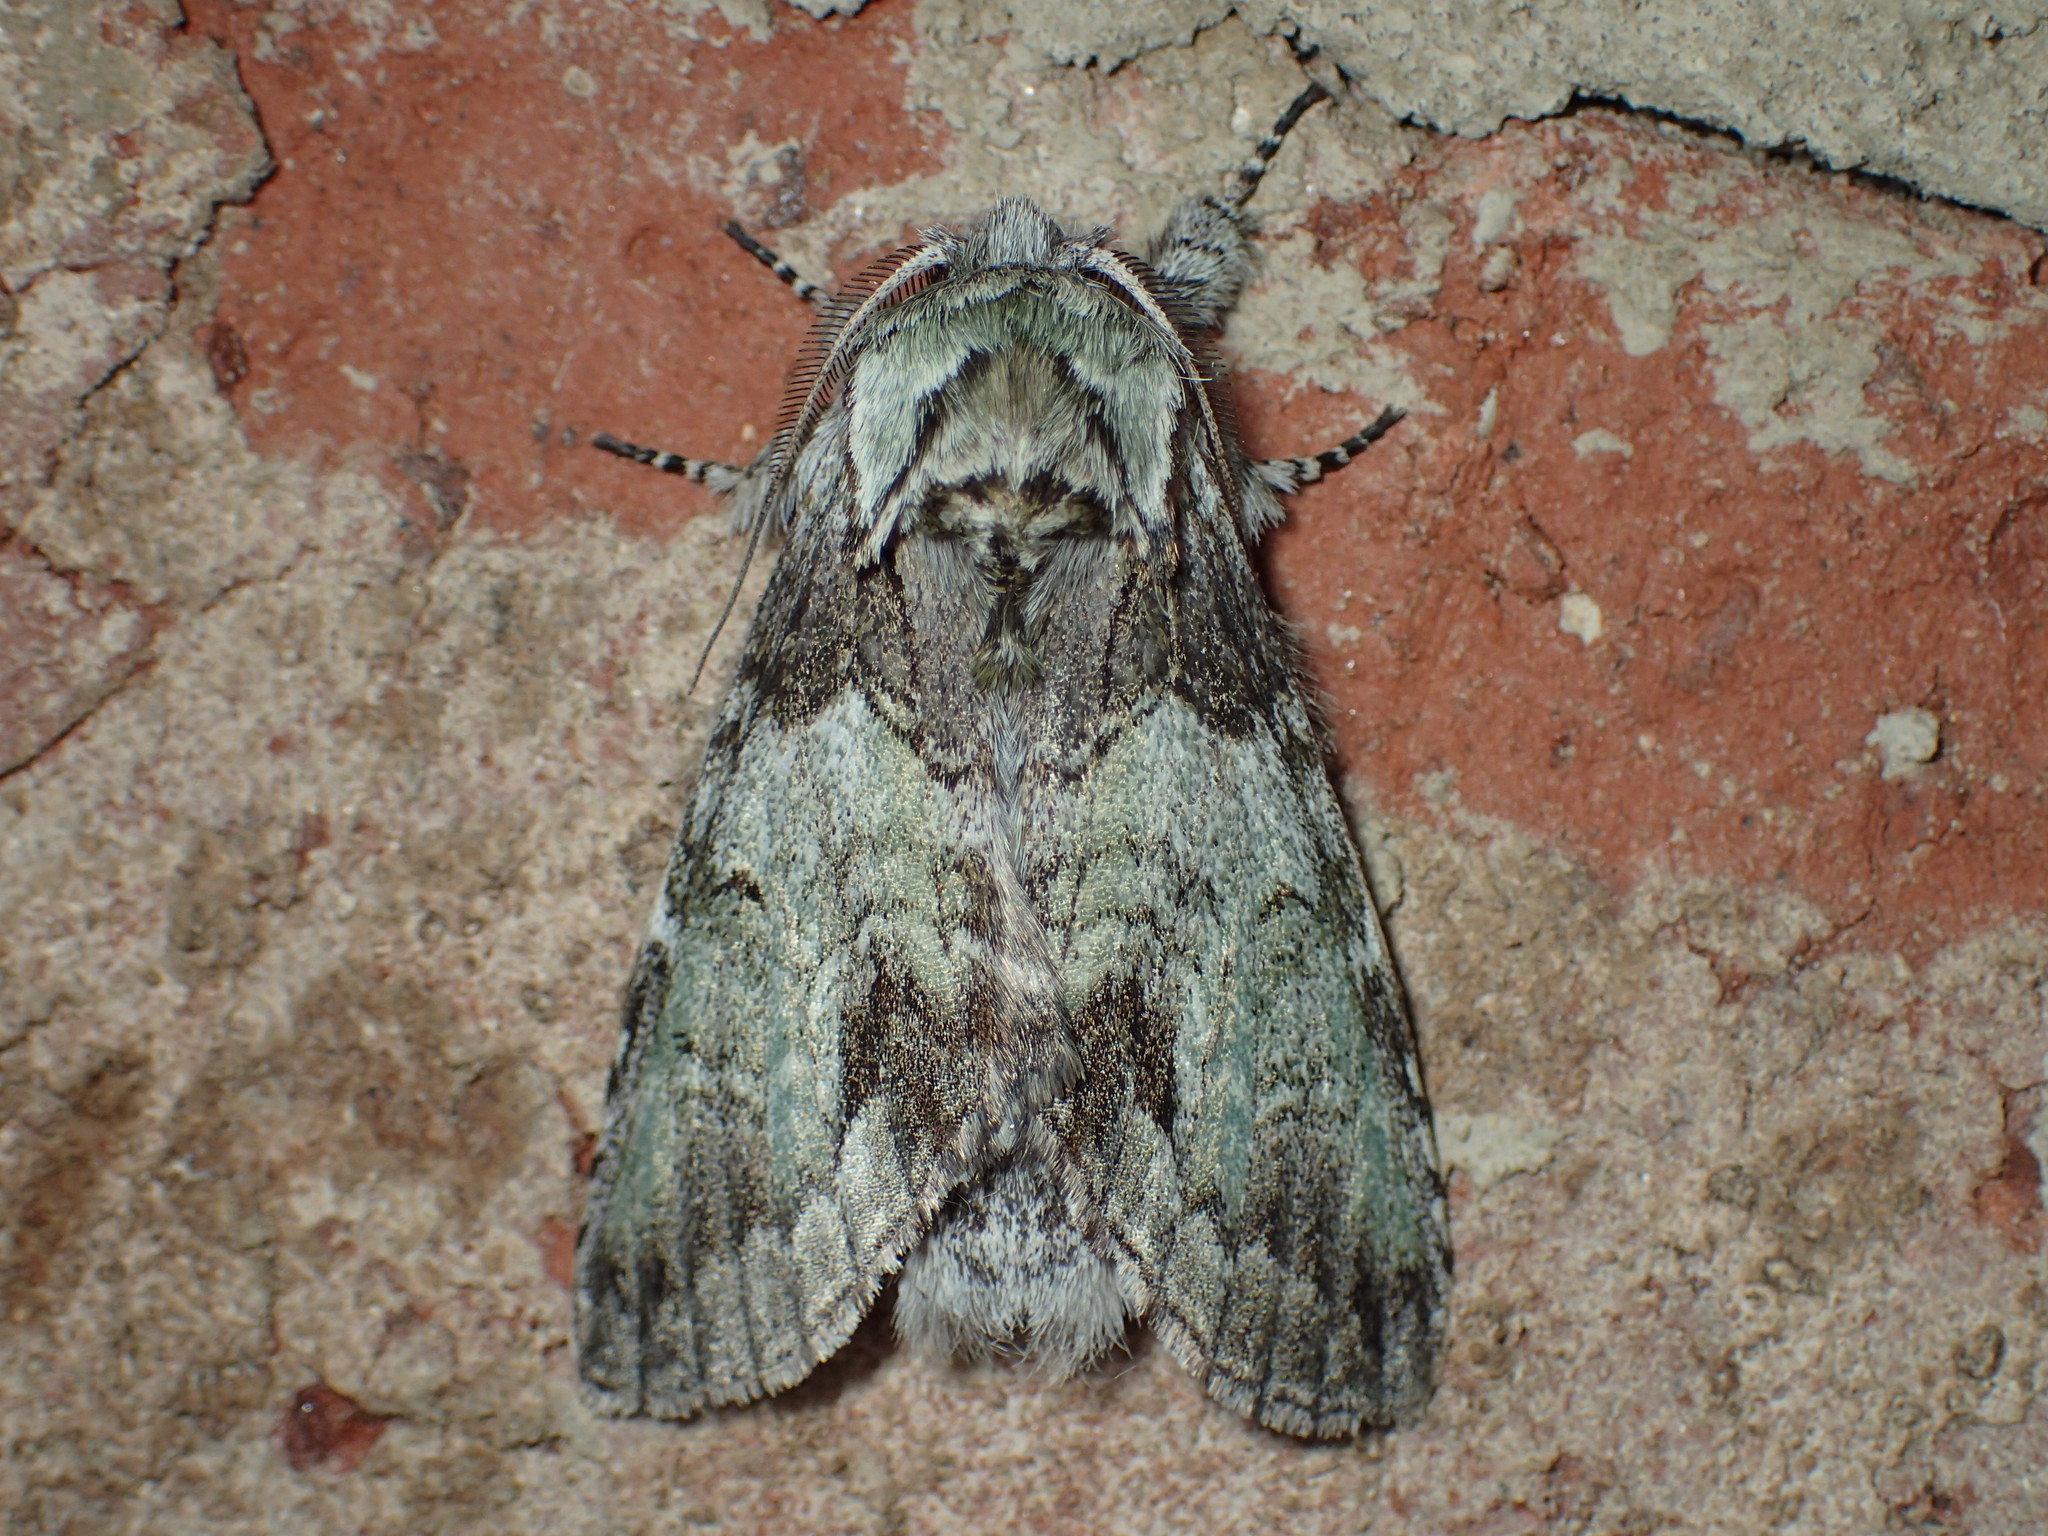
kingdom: Animalia
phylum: Arthropoda
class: Insecta
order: Lepidoptera
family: Notodontidae
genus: Macrurocampa
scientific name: Macrurocampa marthesia
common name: Mottled prominent
